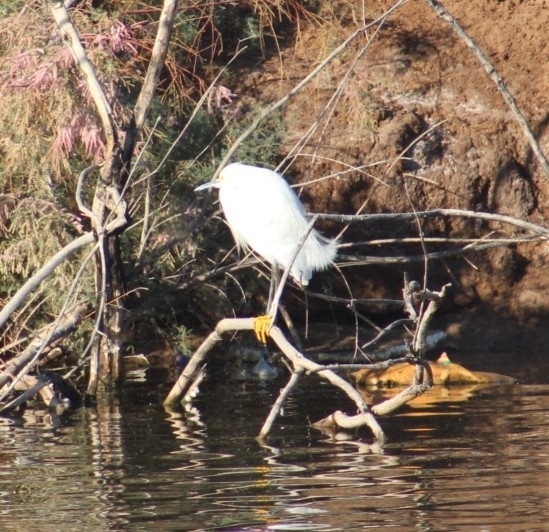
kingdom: Animalia
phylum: Chordata
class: Aves
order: Pelecaniformes
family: Ardeidae
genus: Egretta
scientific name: Egretta thula
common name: Snowy egret
